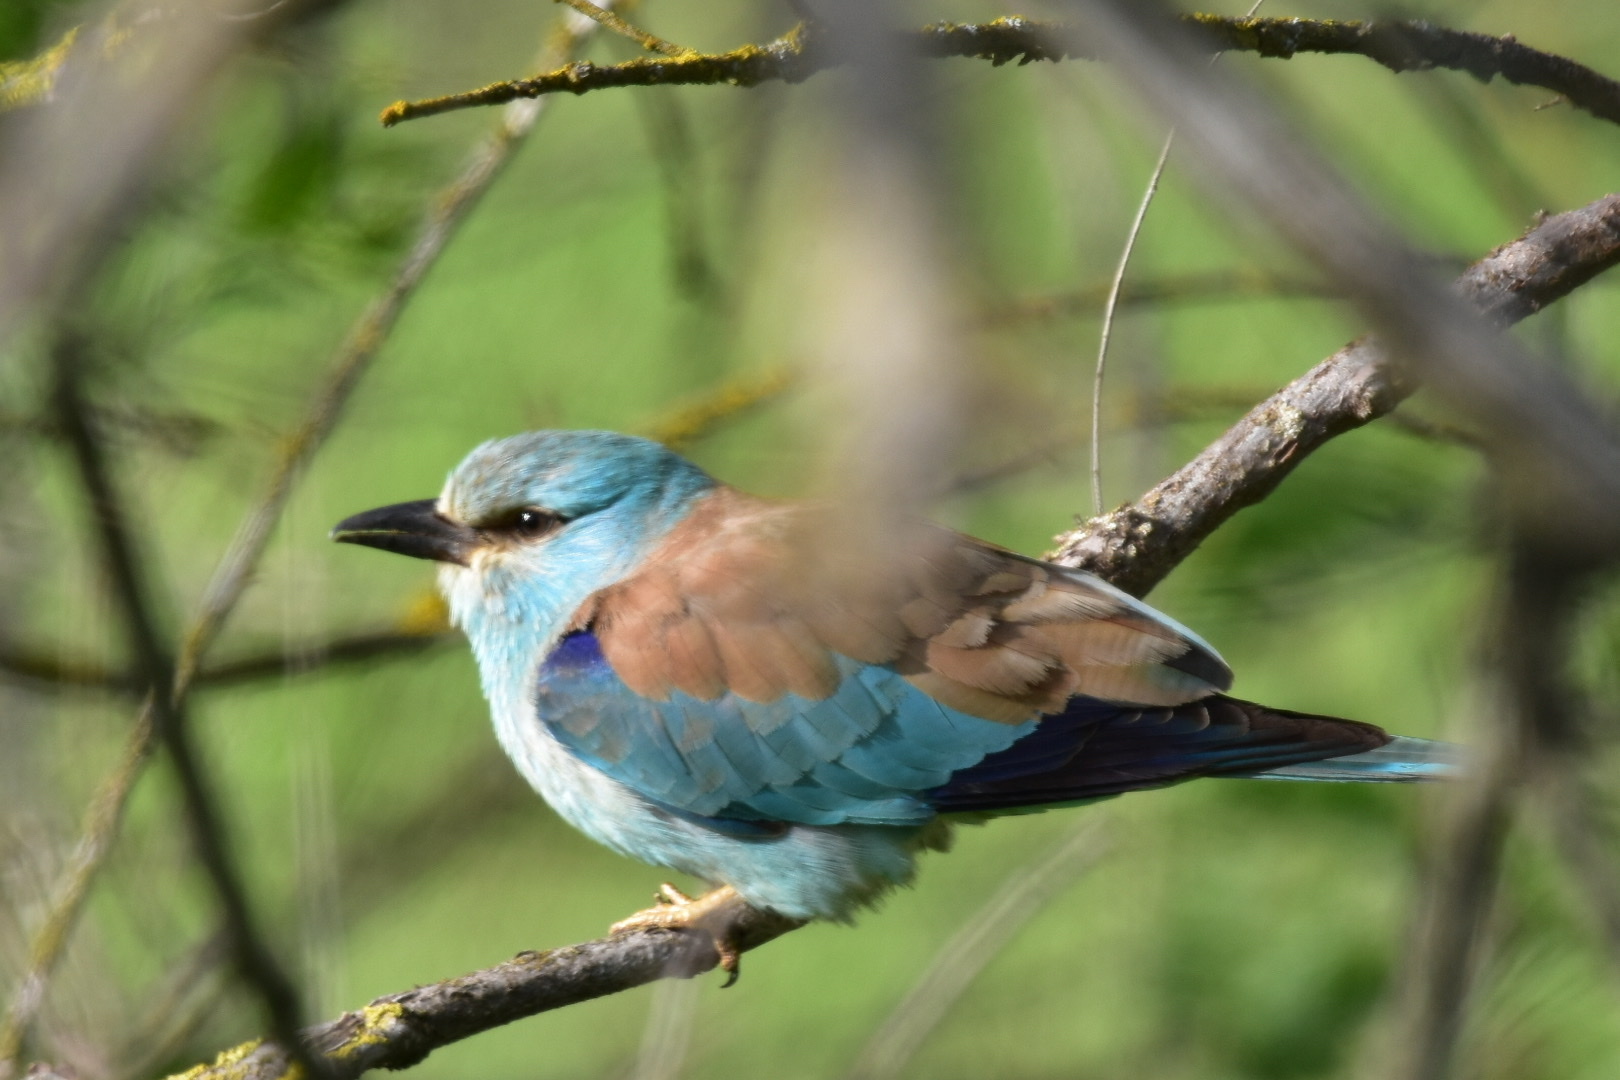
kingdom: Animalia
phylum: Chordata
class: Aves
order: Coraciiformes
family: Coraciidae
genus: Coracias
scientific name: Coracias garrulus
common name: European roller
